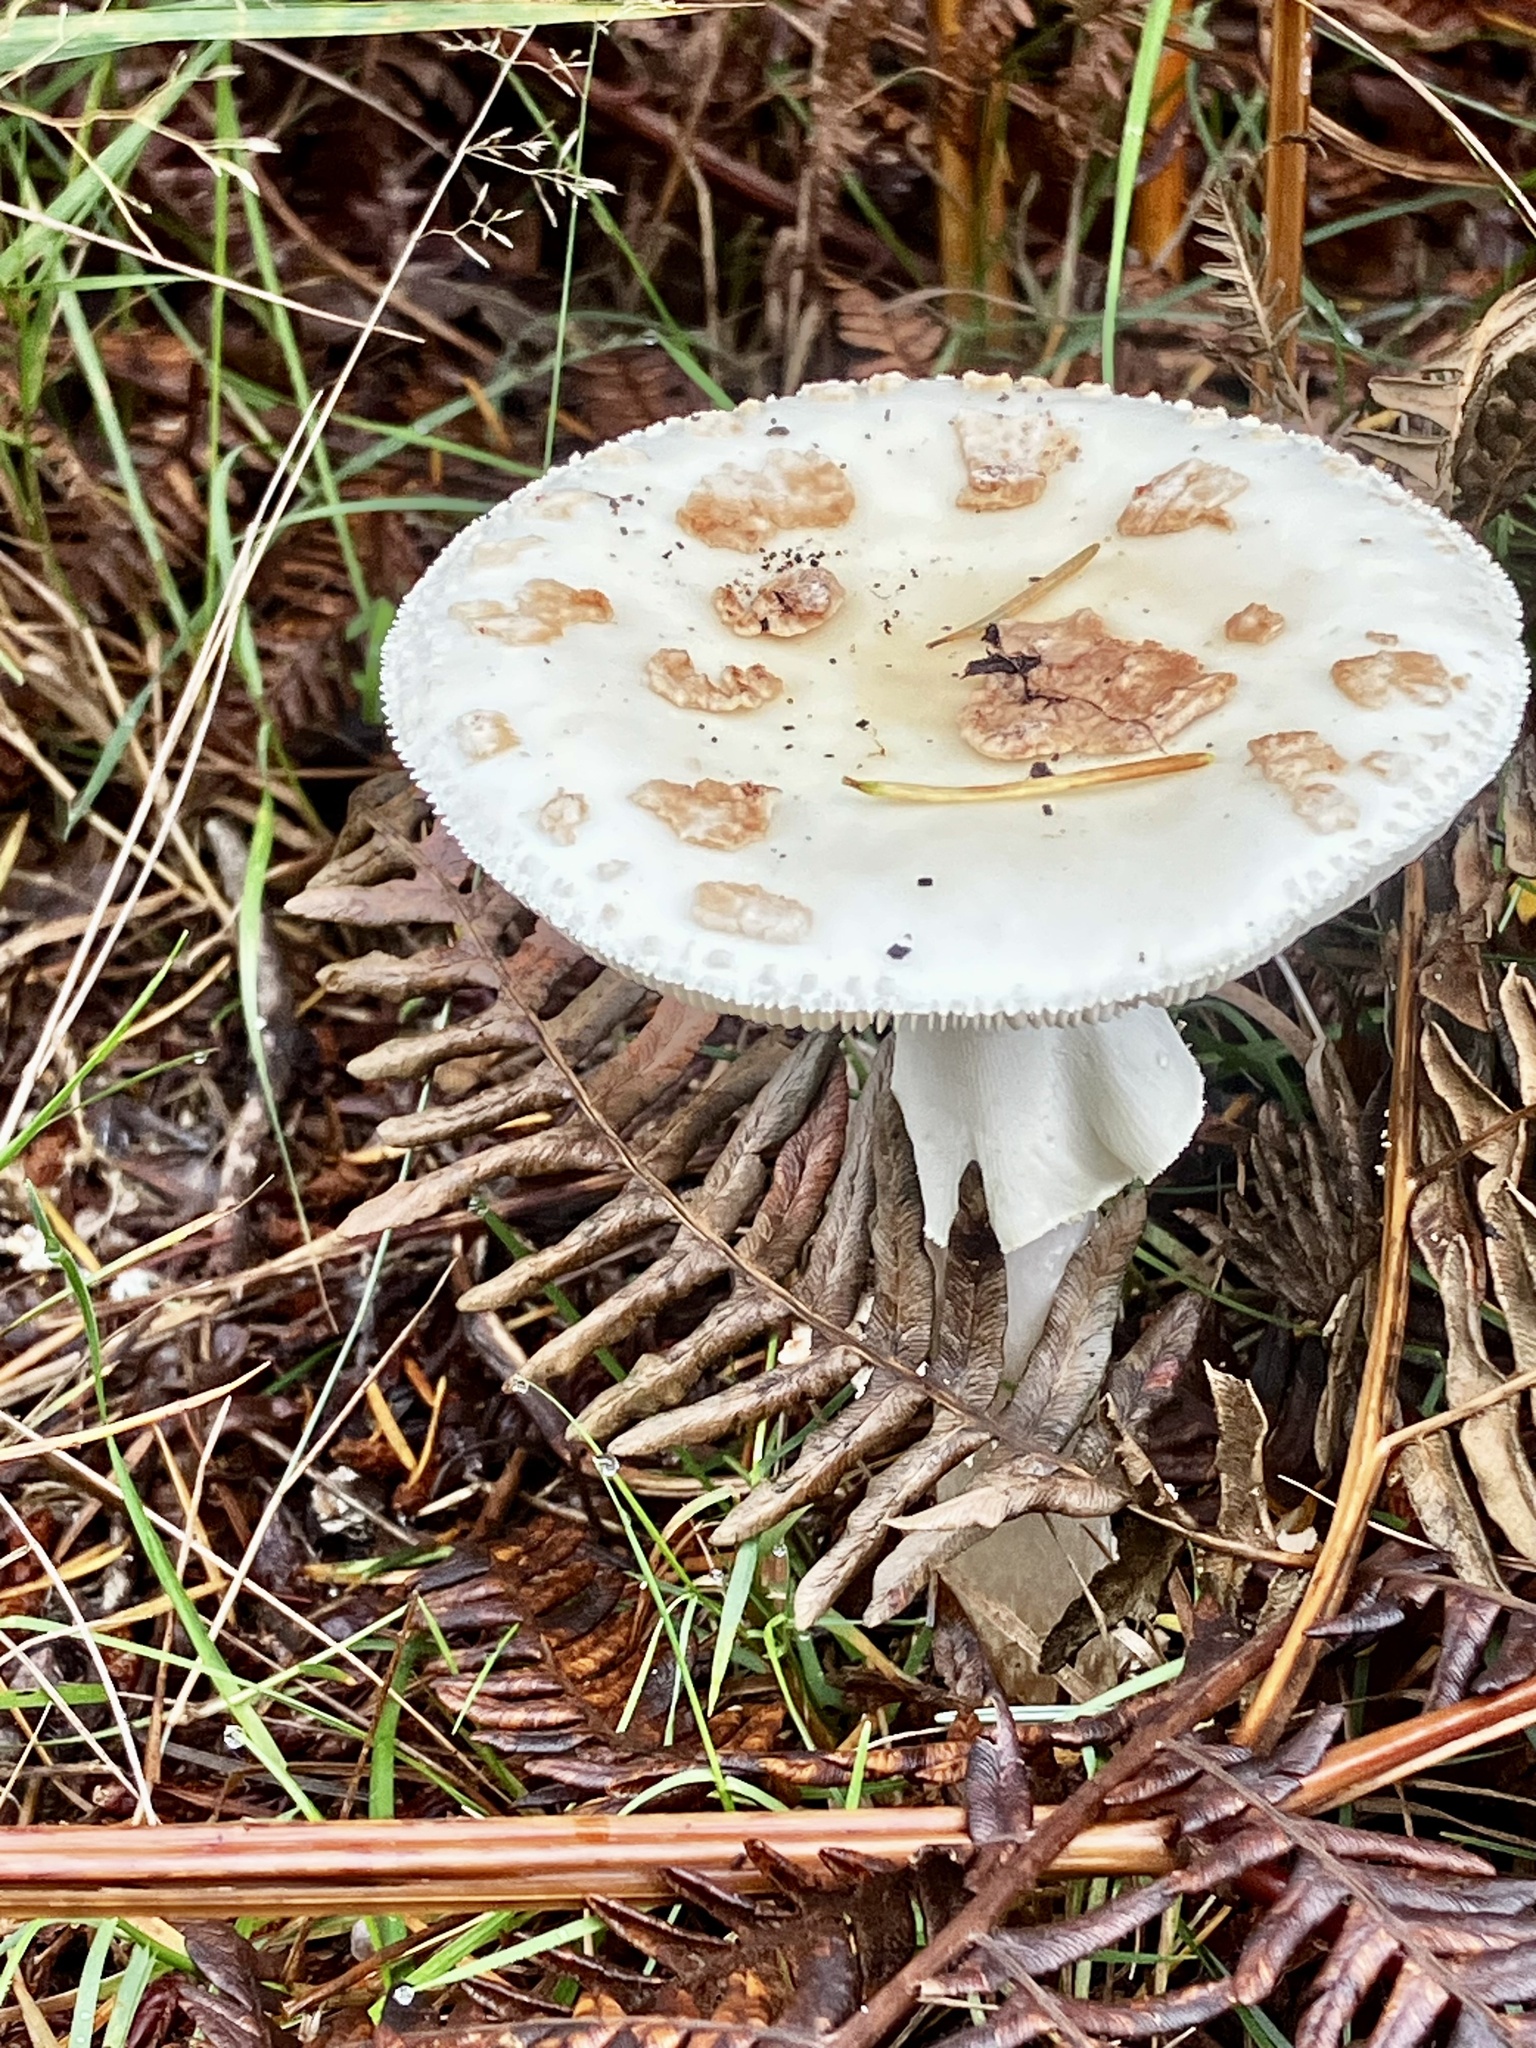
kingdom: Fungi
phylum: Basidiomycota
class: Agaricomycetes
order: Agaricales
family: Amanitaceae
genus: Amanita
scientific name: Amanita citrina
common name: False death-cap
